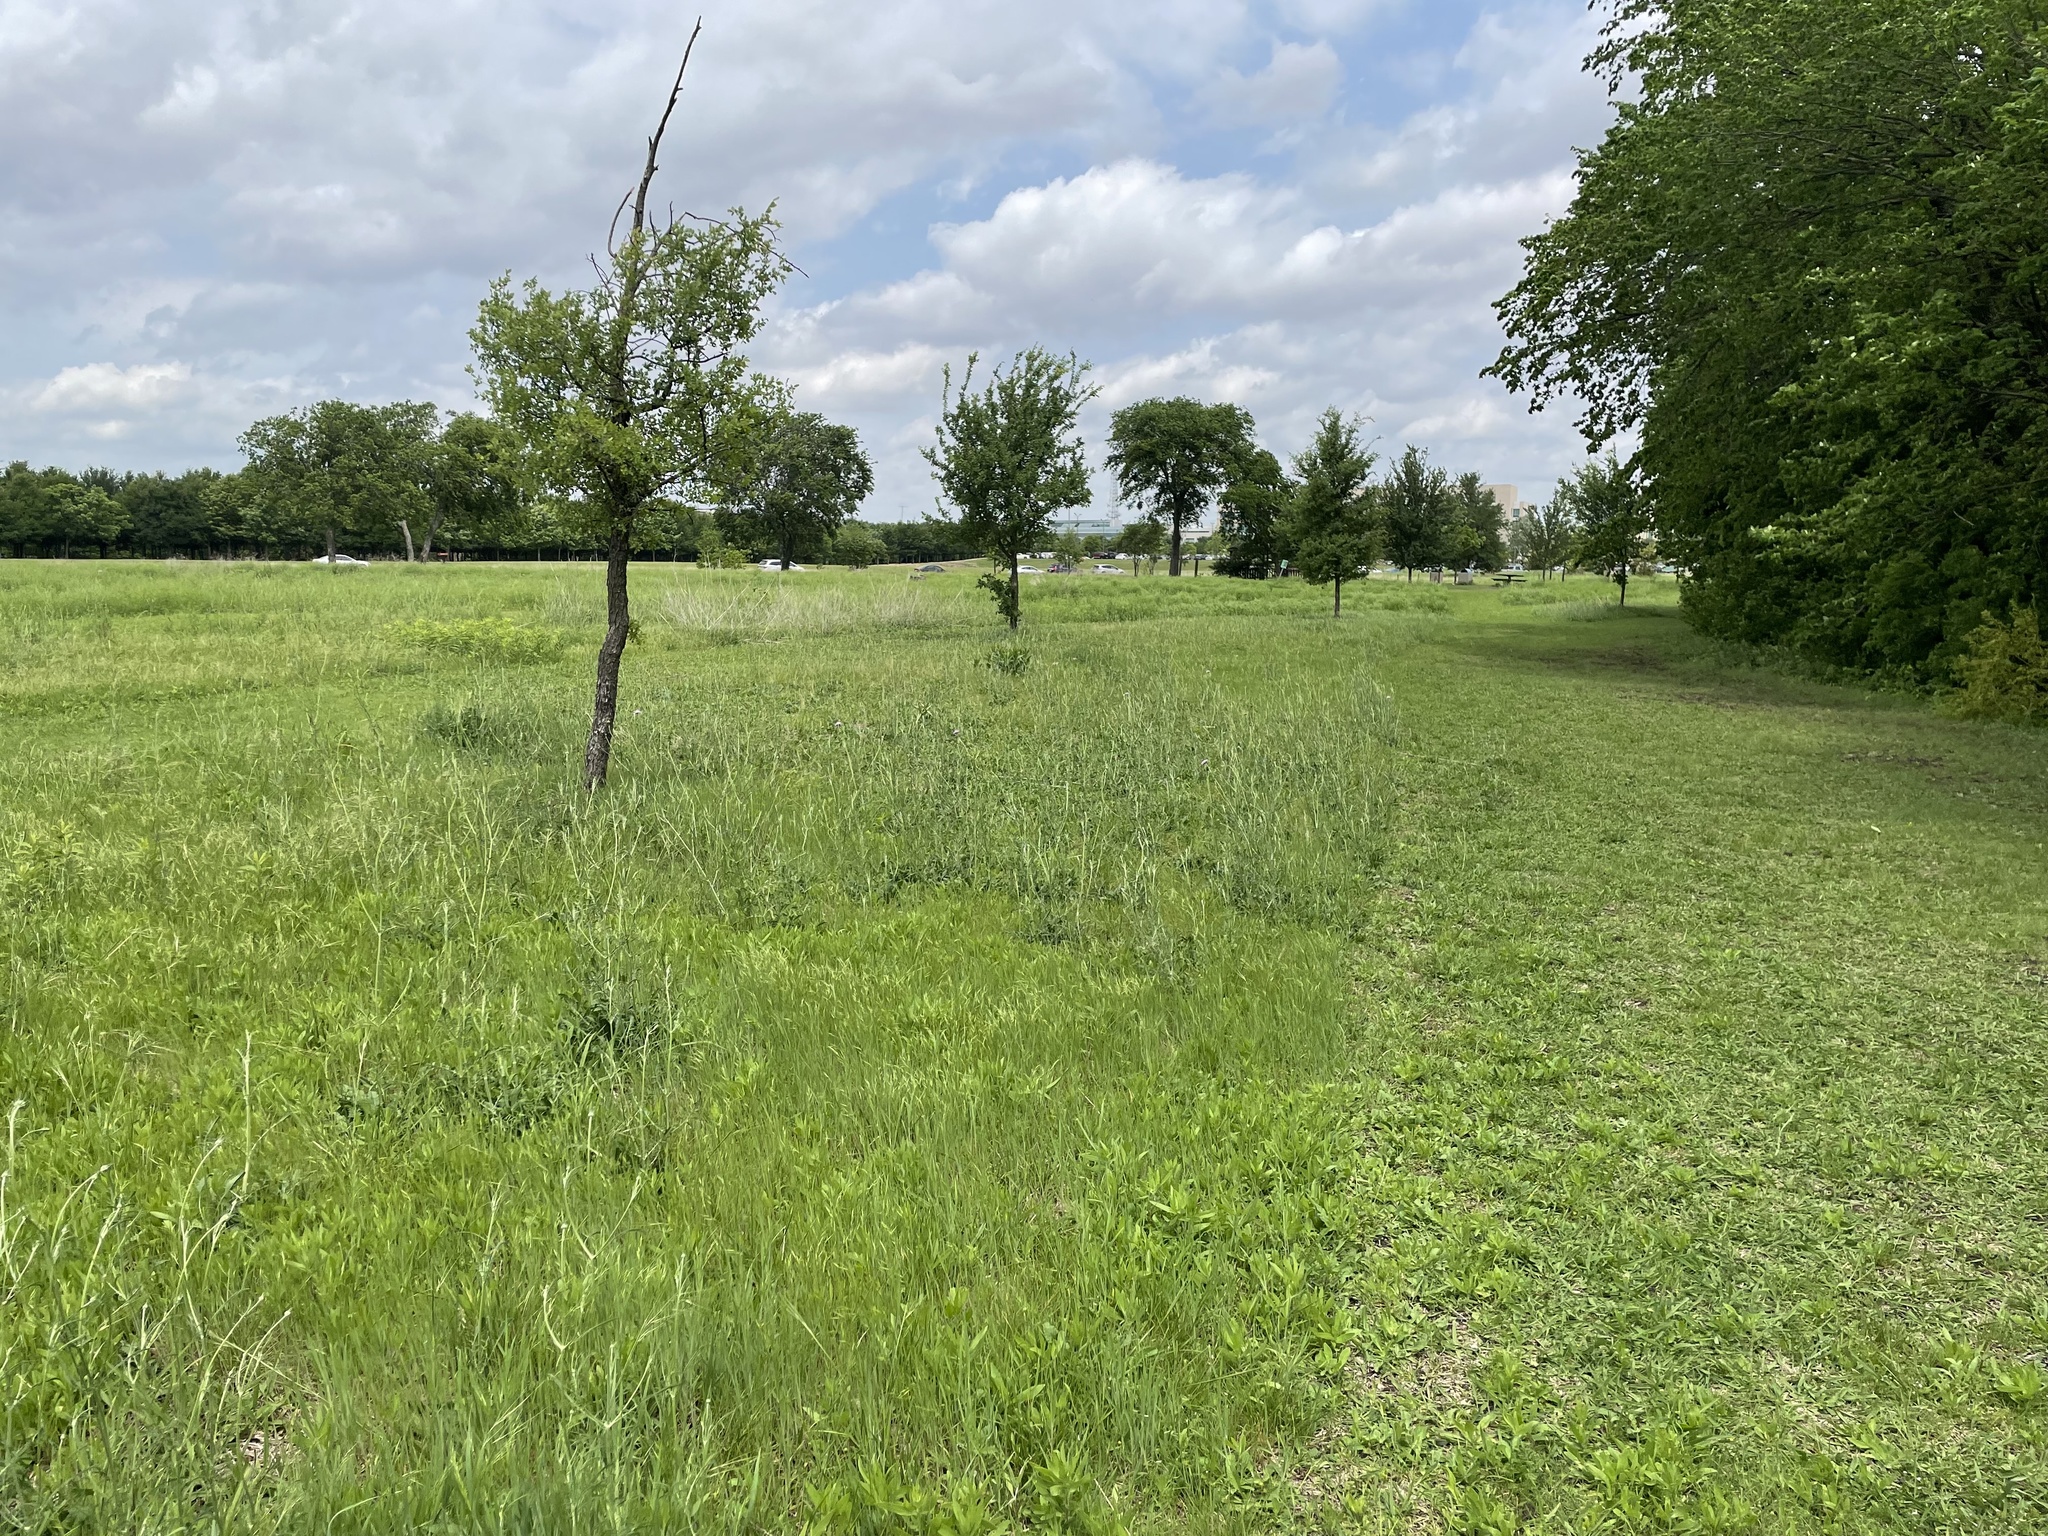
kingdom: Plantae
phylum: Tracheophyta
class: Magnoliopsida
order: Dipsacales
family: Caprifoliaceae
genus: Sixalix
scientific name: Sixalix atropurpurea
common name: Sweet scabious
